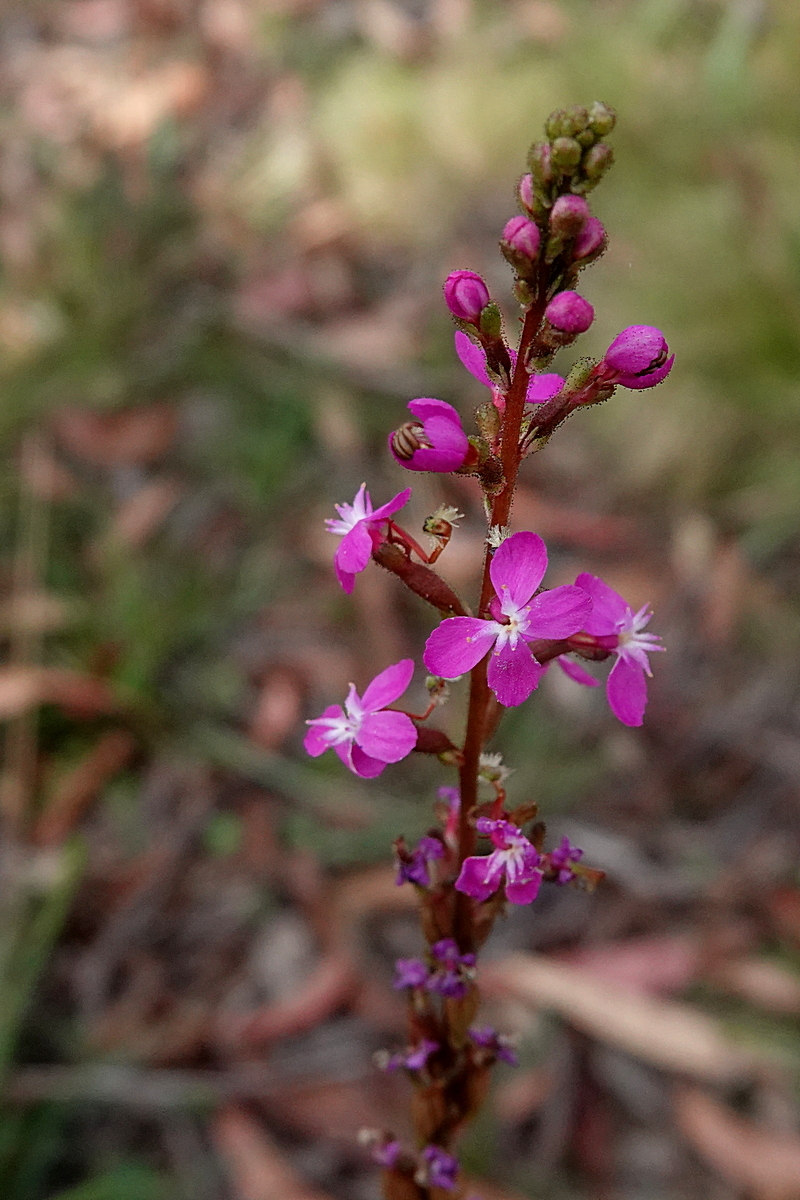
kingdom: Plantae
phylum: Tracheophyta
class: Magnoliopsida
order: Asterales
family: Stylidiaceae
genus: Stylidium
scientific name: Stylidium armeria
